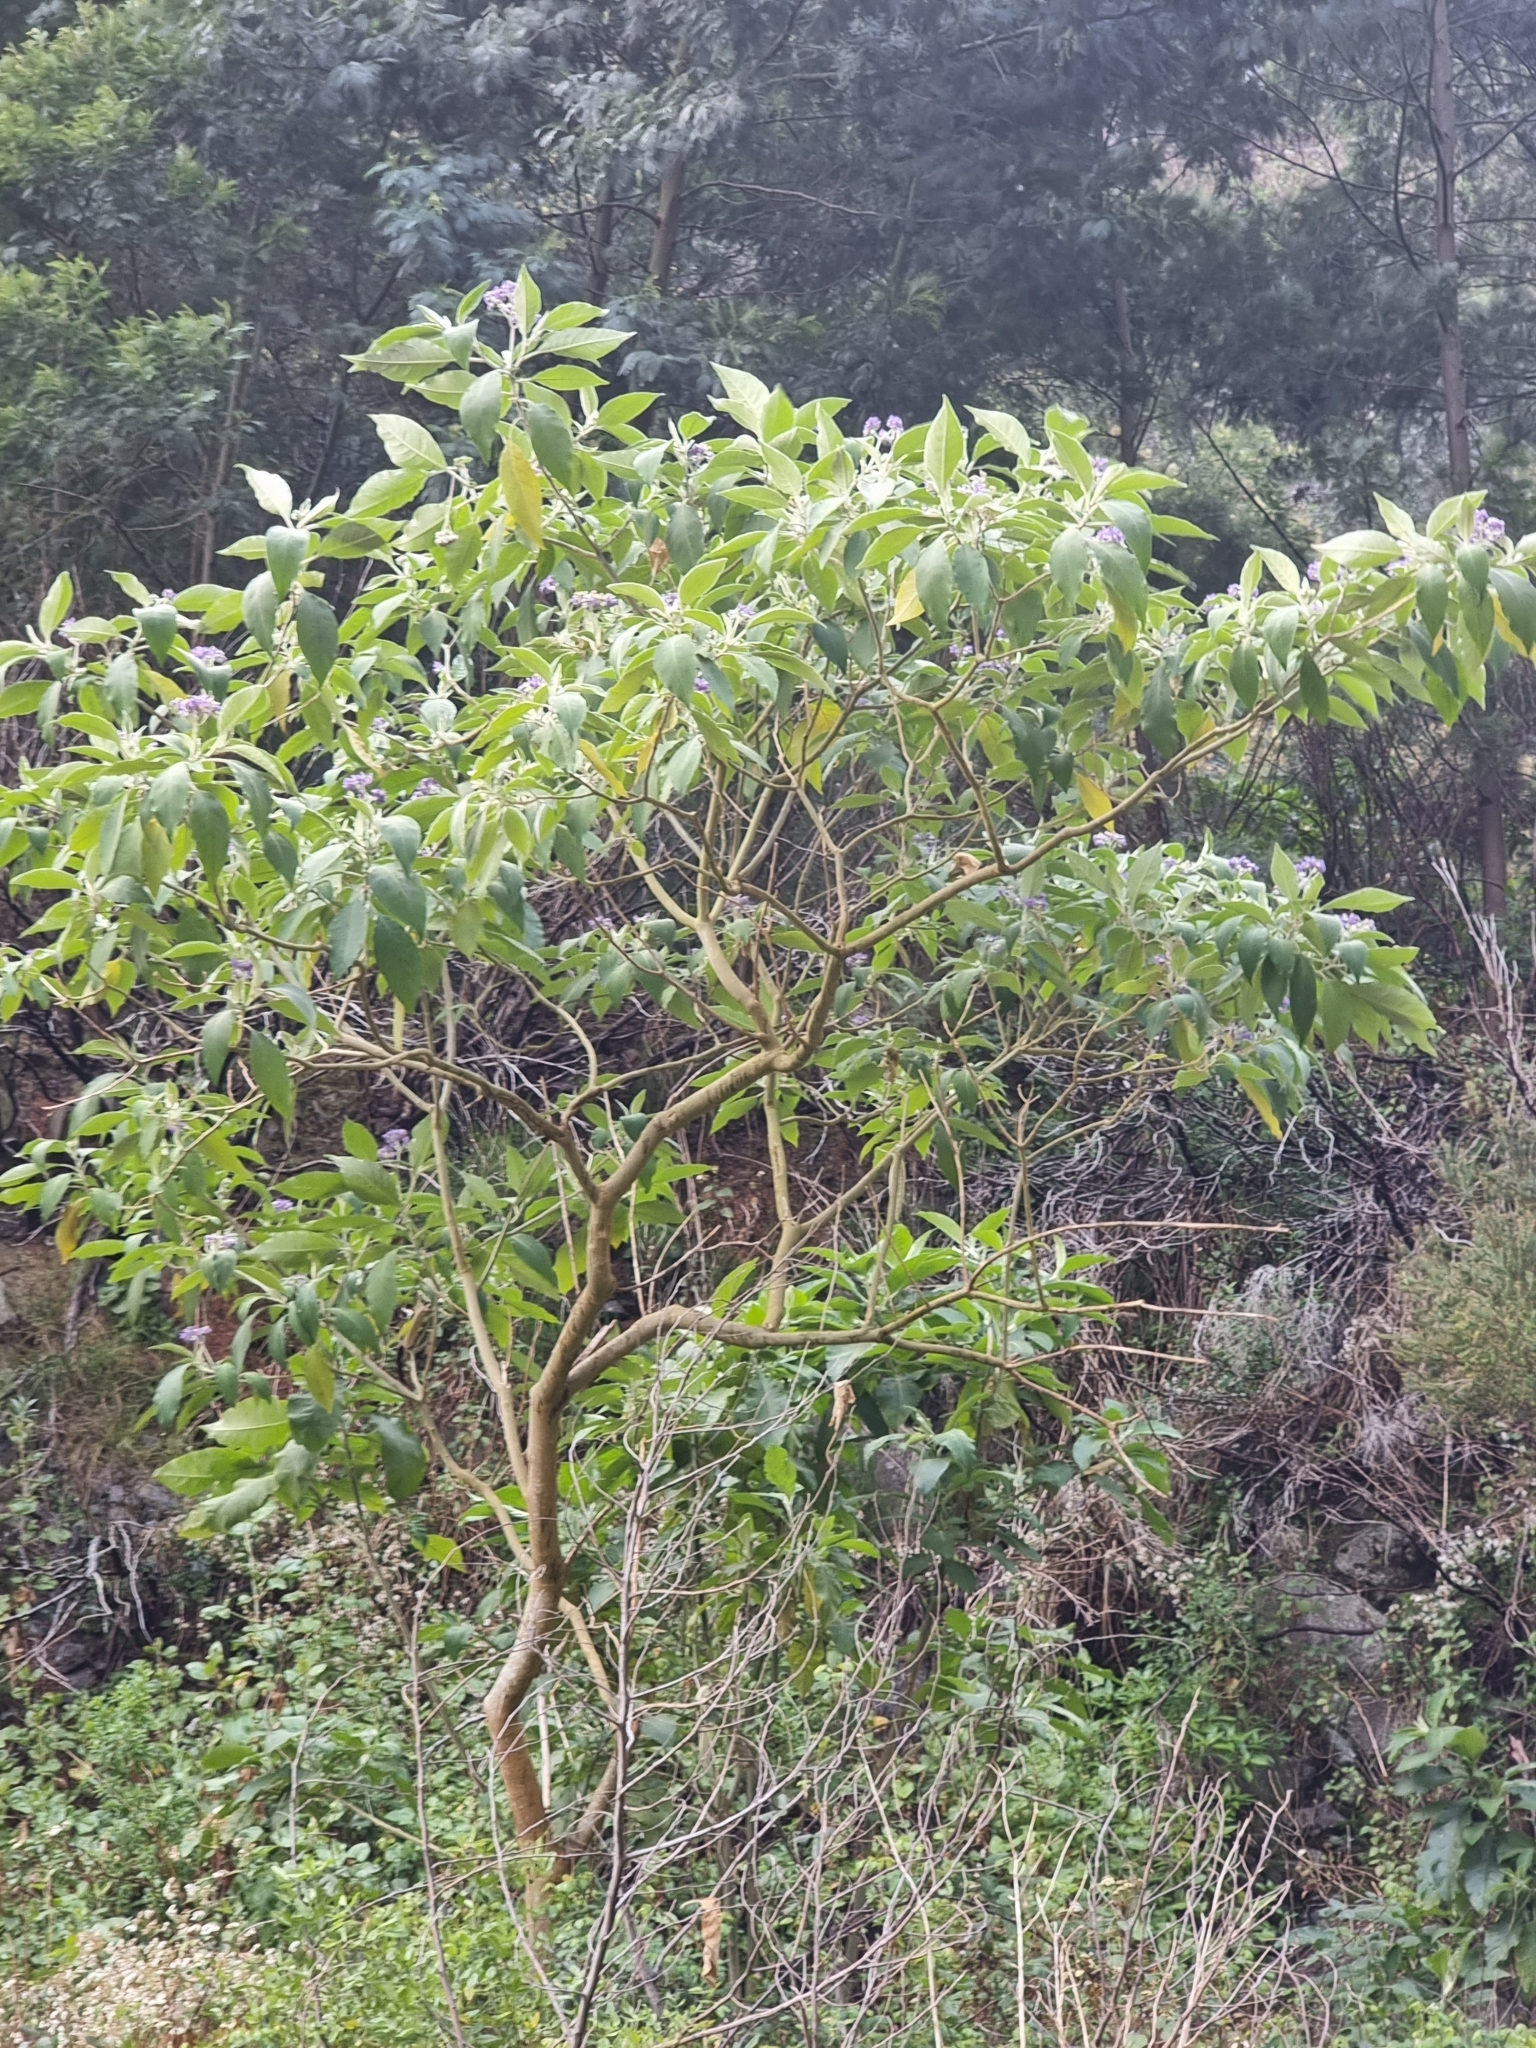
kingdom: Plantae
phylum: Tracheophyta
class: Magnoliopsida
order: Solanales
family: Solanaceae
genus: Solanum
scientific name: Solanum mauritianum
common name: Earleaf nightshade
